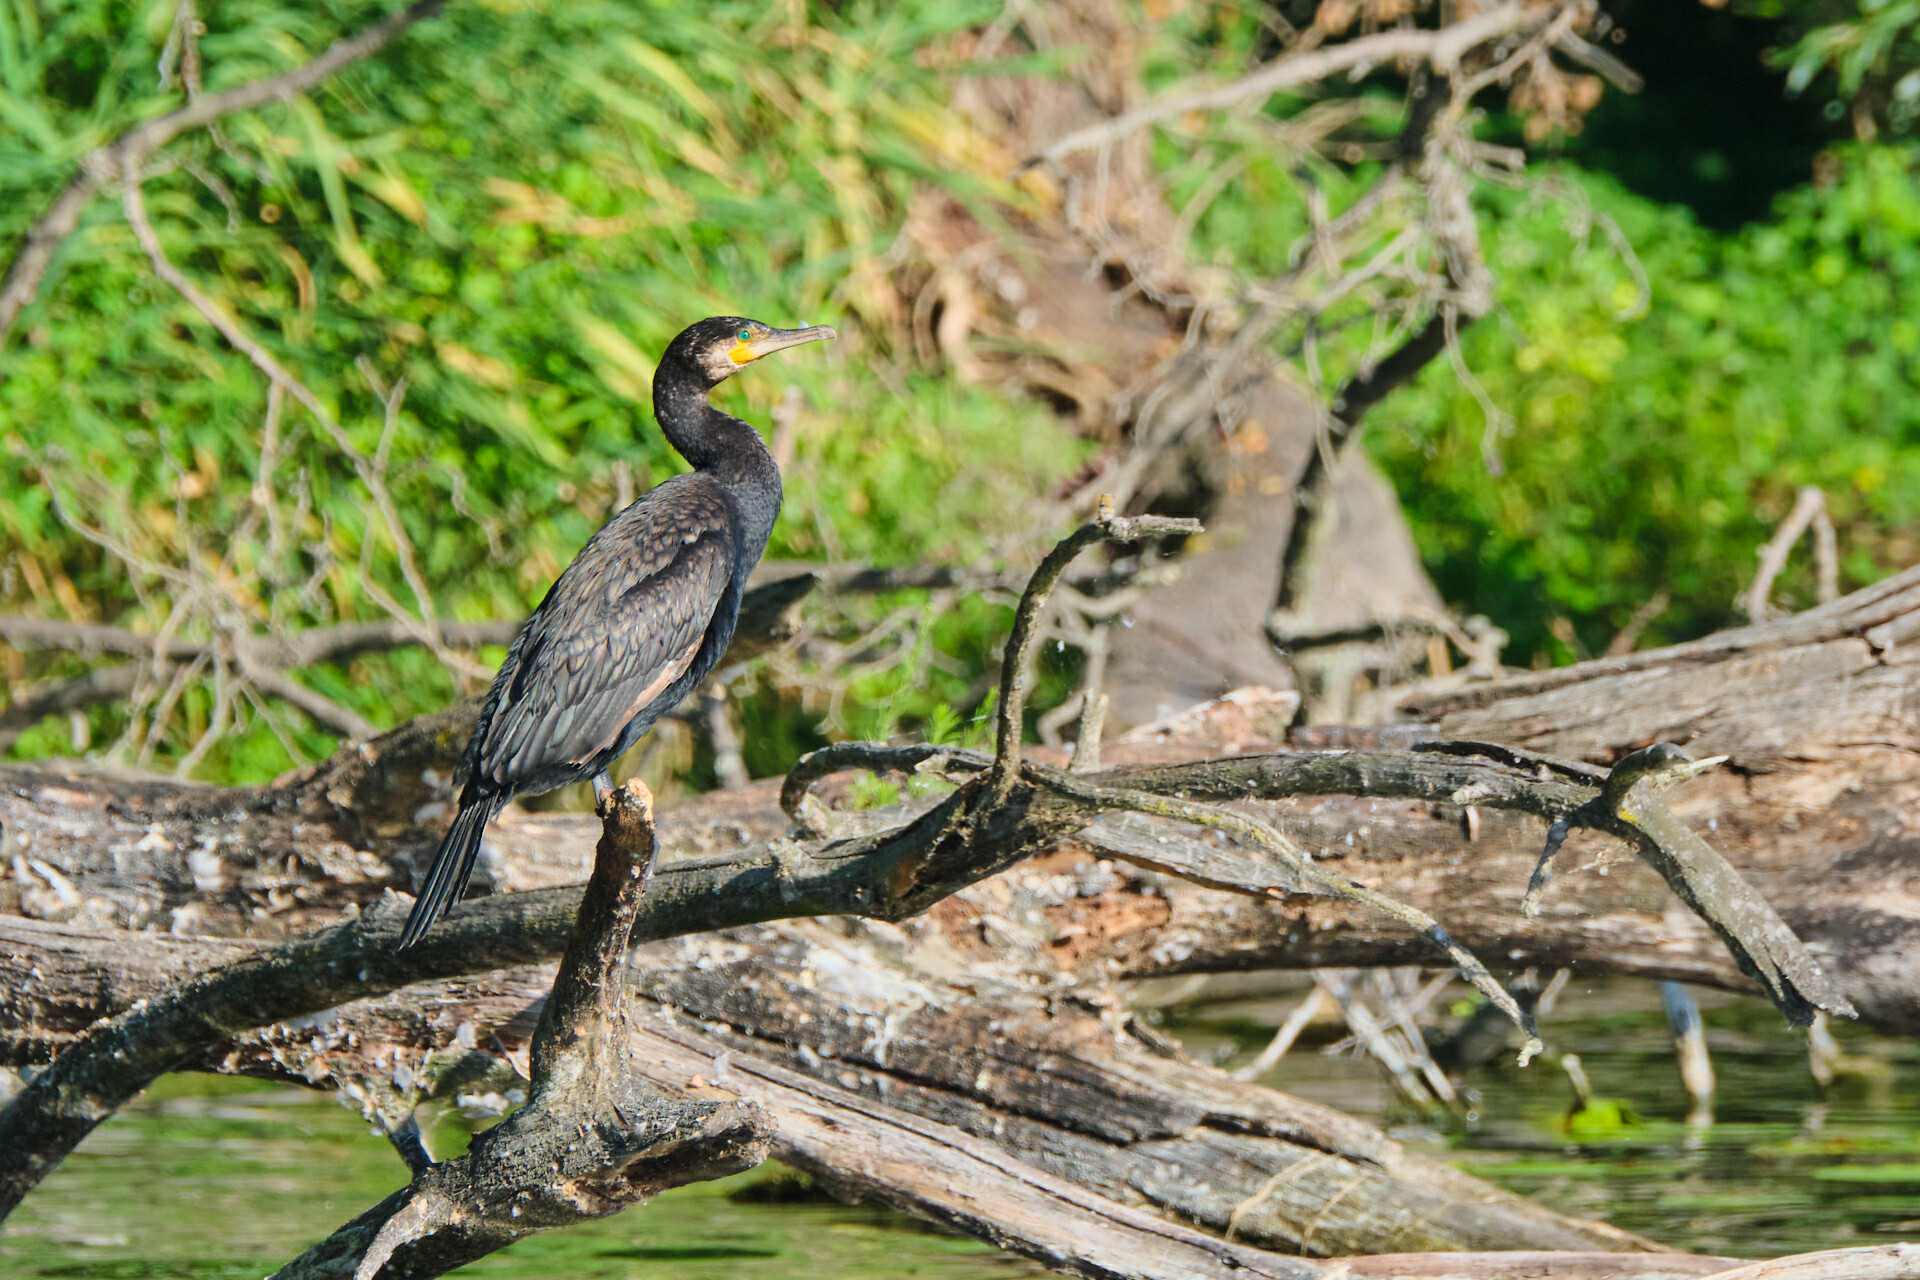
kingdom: Animalia
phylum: Chordata
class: Aves
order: Suliformes
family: Phalacrocoracidae
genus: Phalacrocorax
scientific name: Phalacrocorax carbo
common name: Great cormorant
